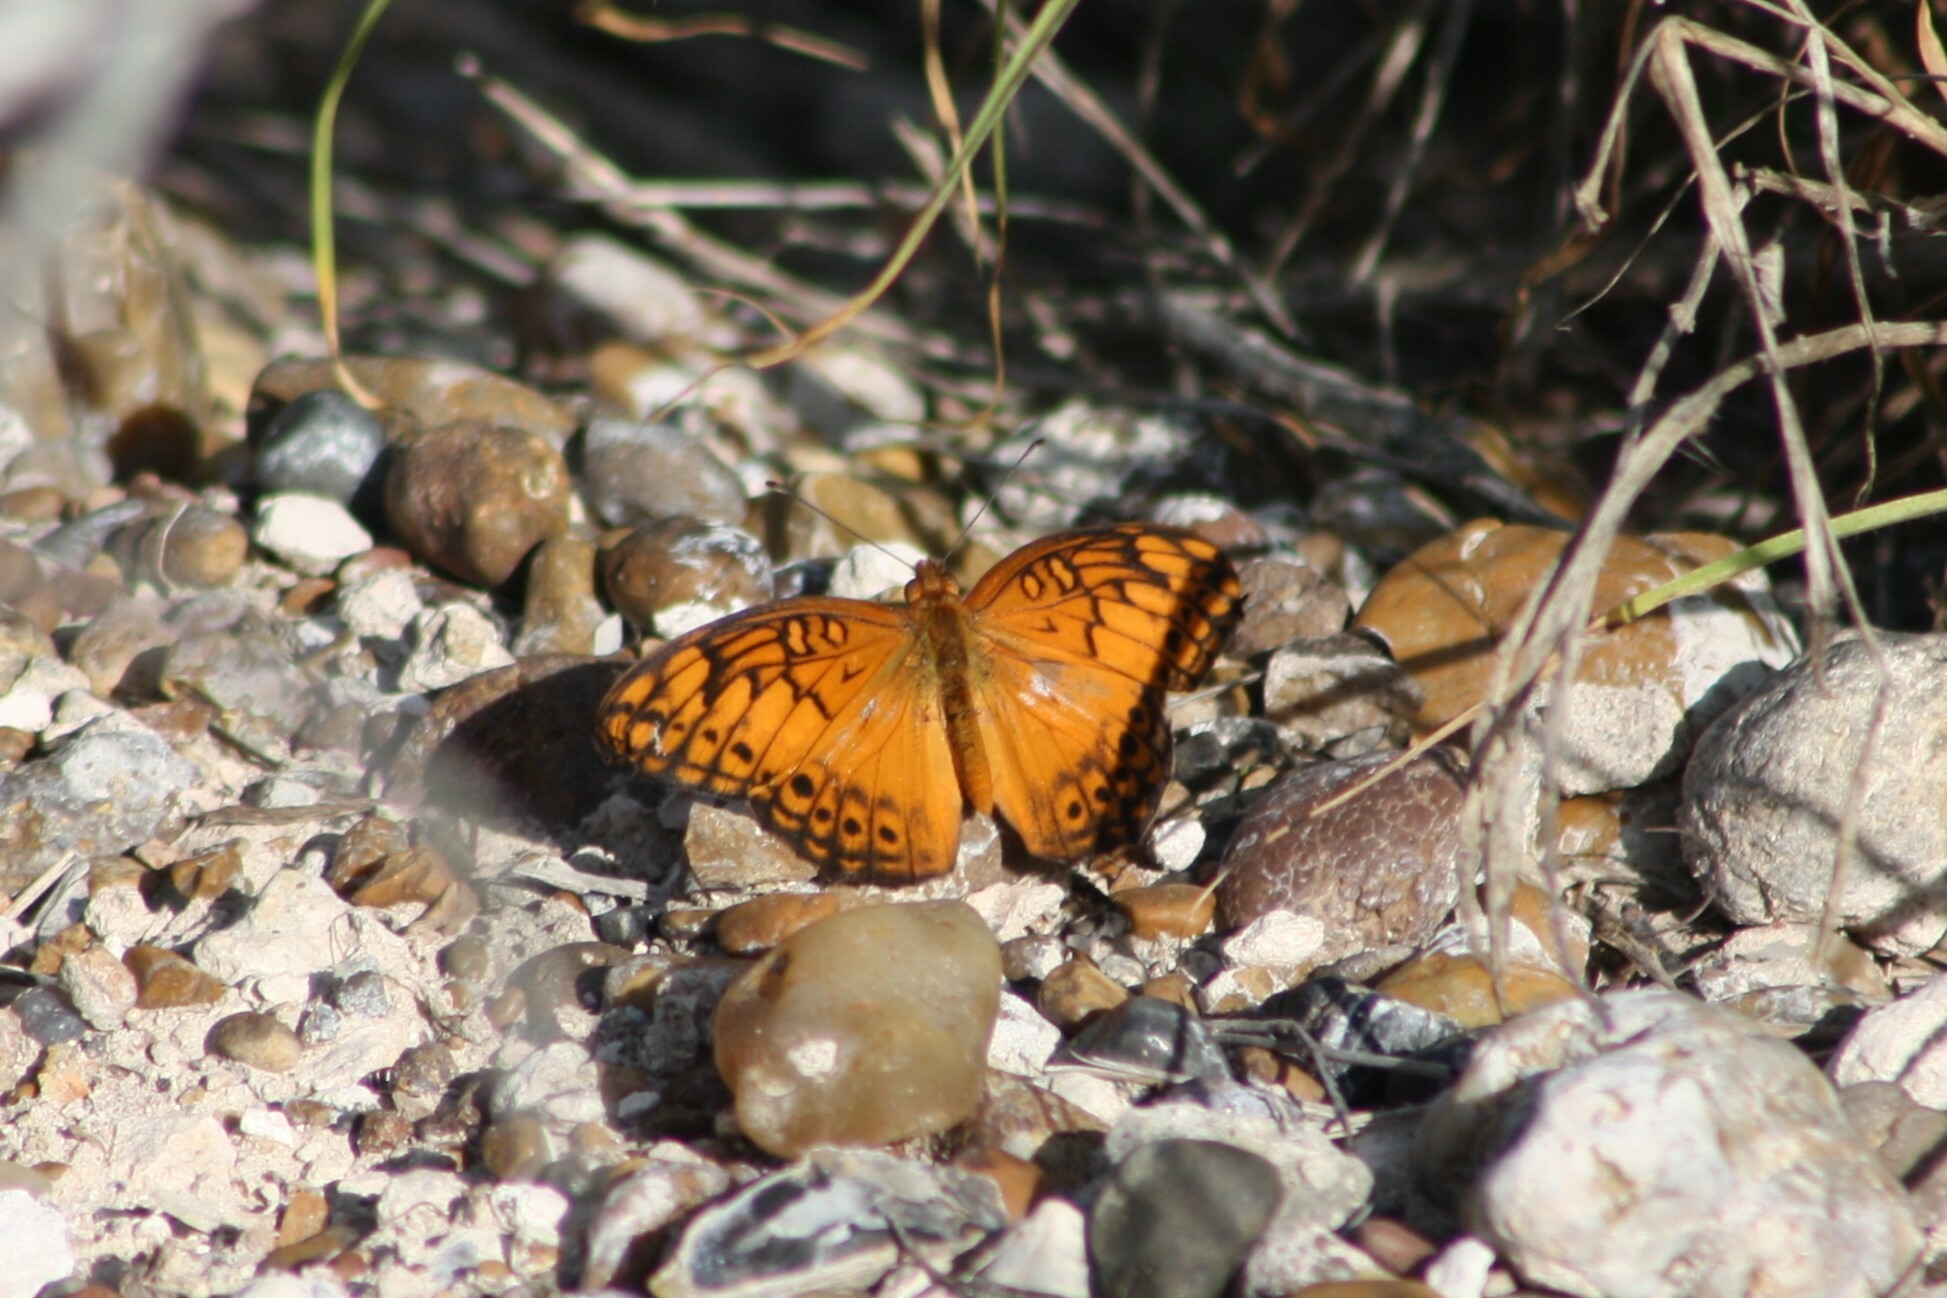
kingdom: Animalia
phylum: Arthropoda
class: Insecta
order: Lepidoptera
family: Nymphalidae
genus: Euptoieta
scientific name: Euptoieta hegesia
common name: Mexican fritillary
